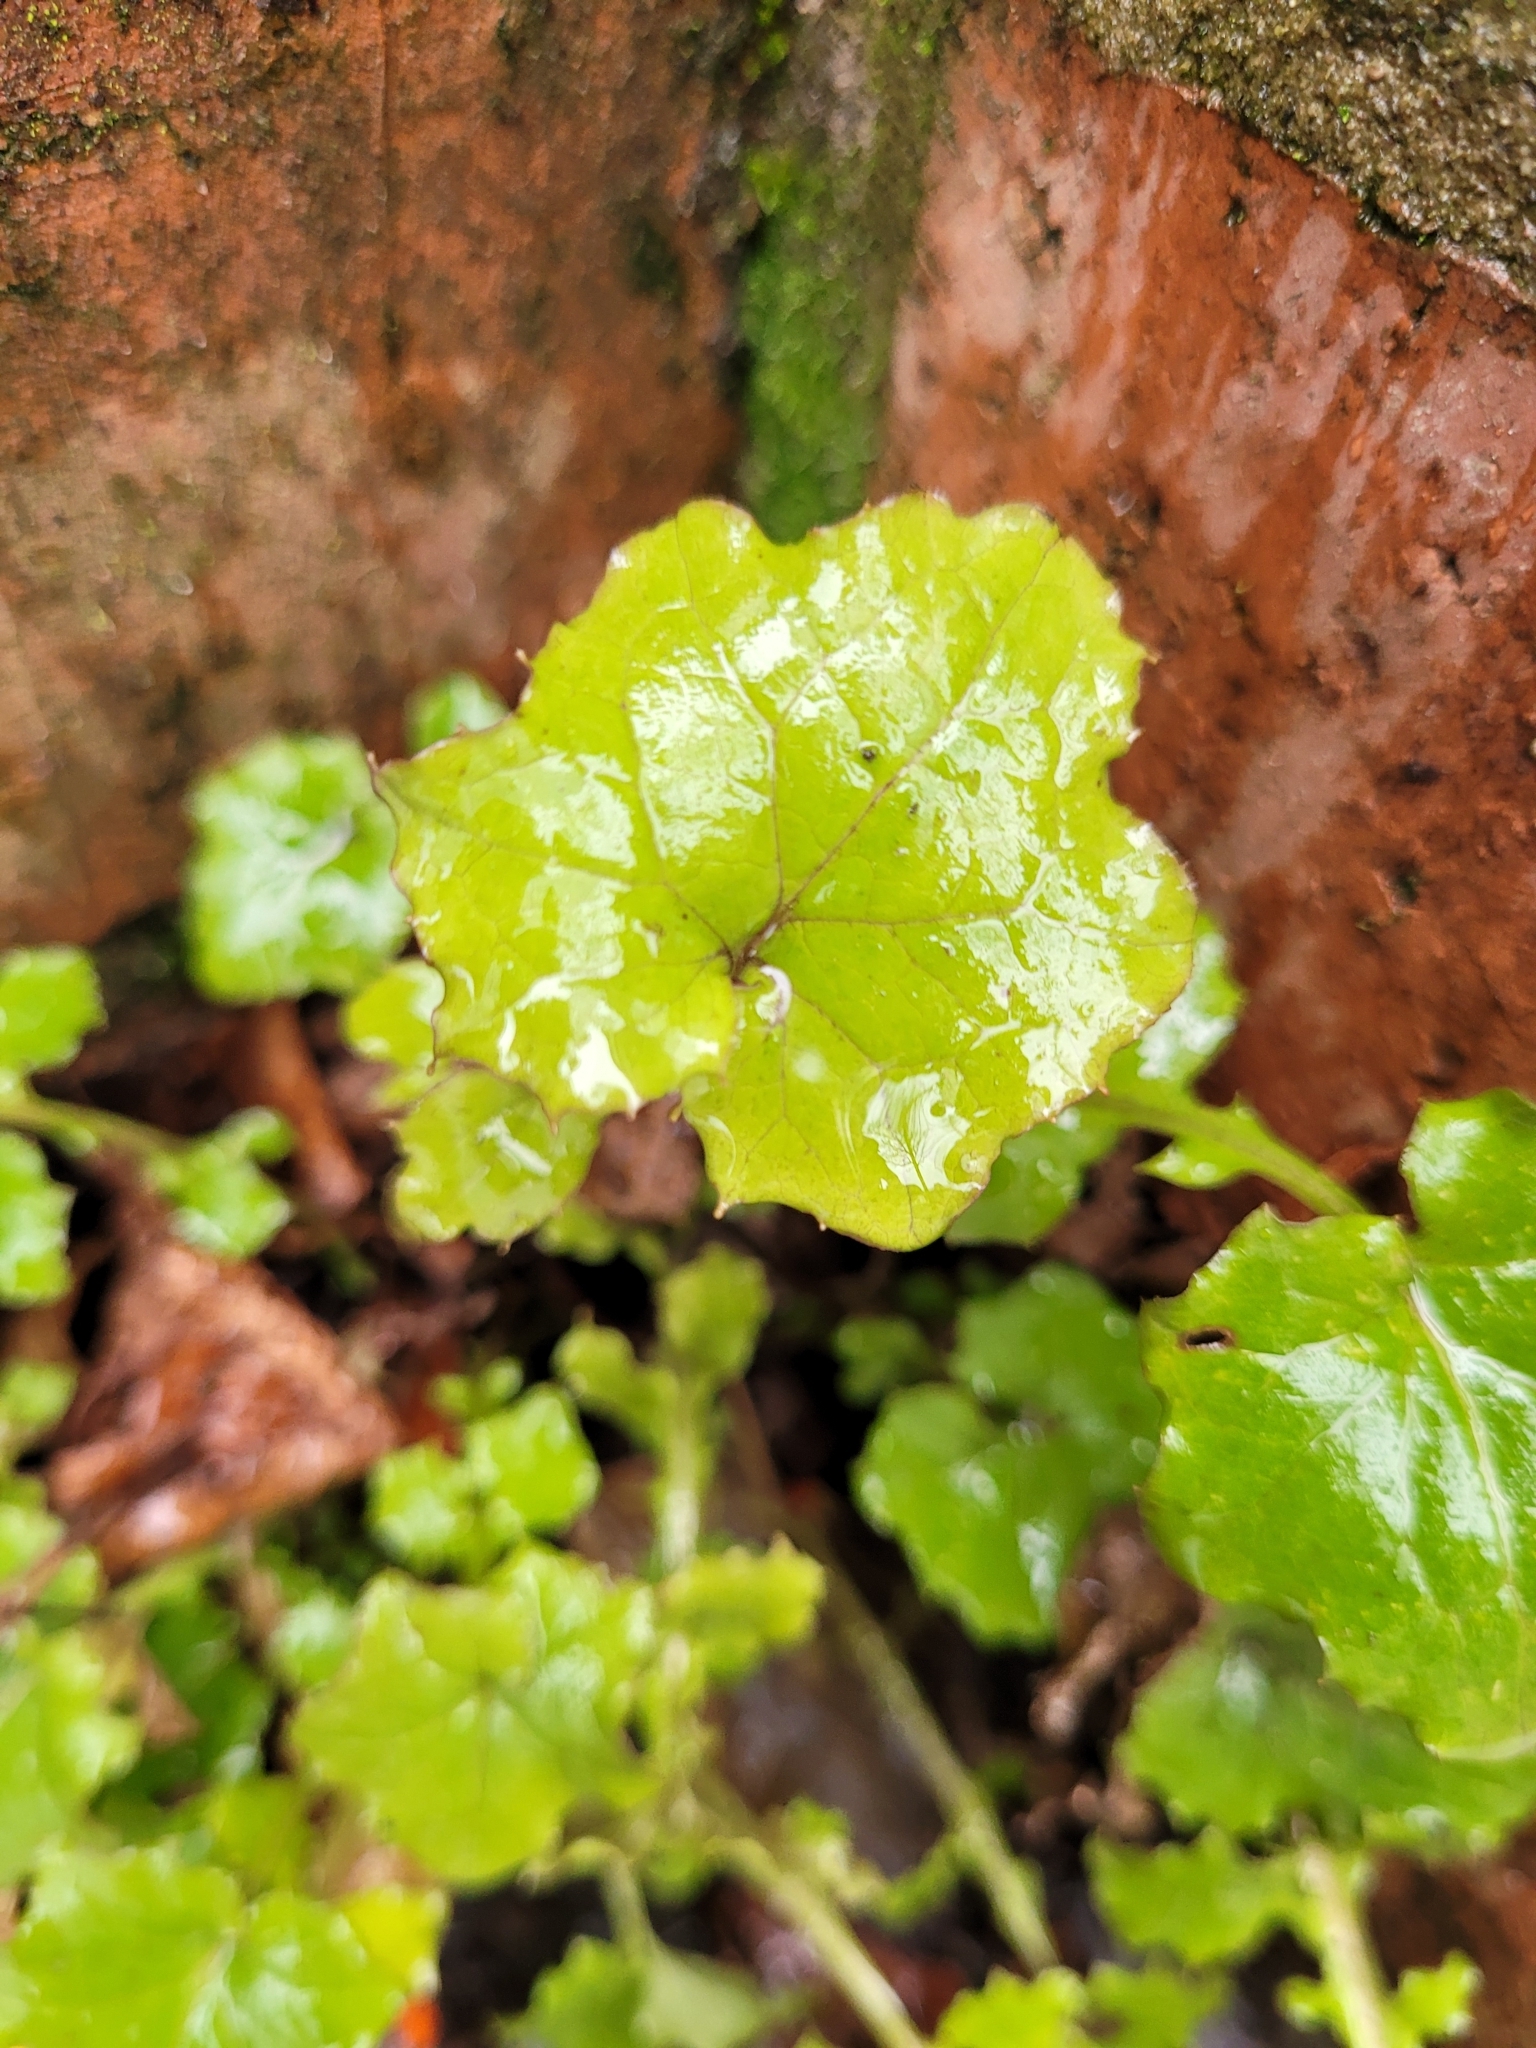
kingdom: Plantae
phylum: Tracheophyta
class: Magnoliopsida
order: Asterales
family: Asteraceae
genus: Mycelis
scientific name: Mycelis muralis
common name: Wall lettuce
